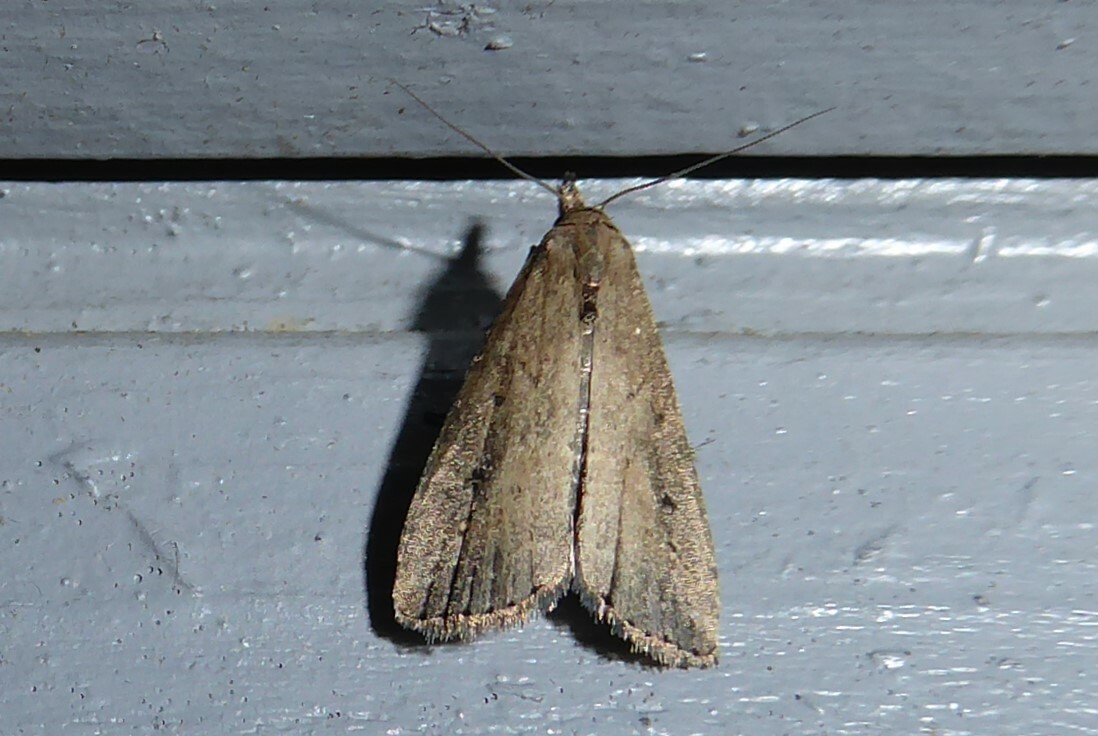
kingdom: Animalia
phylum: Arthropoda
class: Insecta
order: Lepidoptera
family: Erebidae
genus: Schrankia
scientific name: Schrankia costaestrigalis
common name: Pinion-streaked snout
